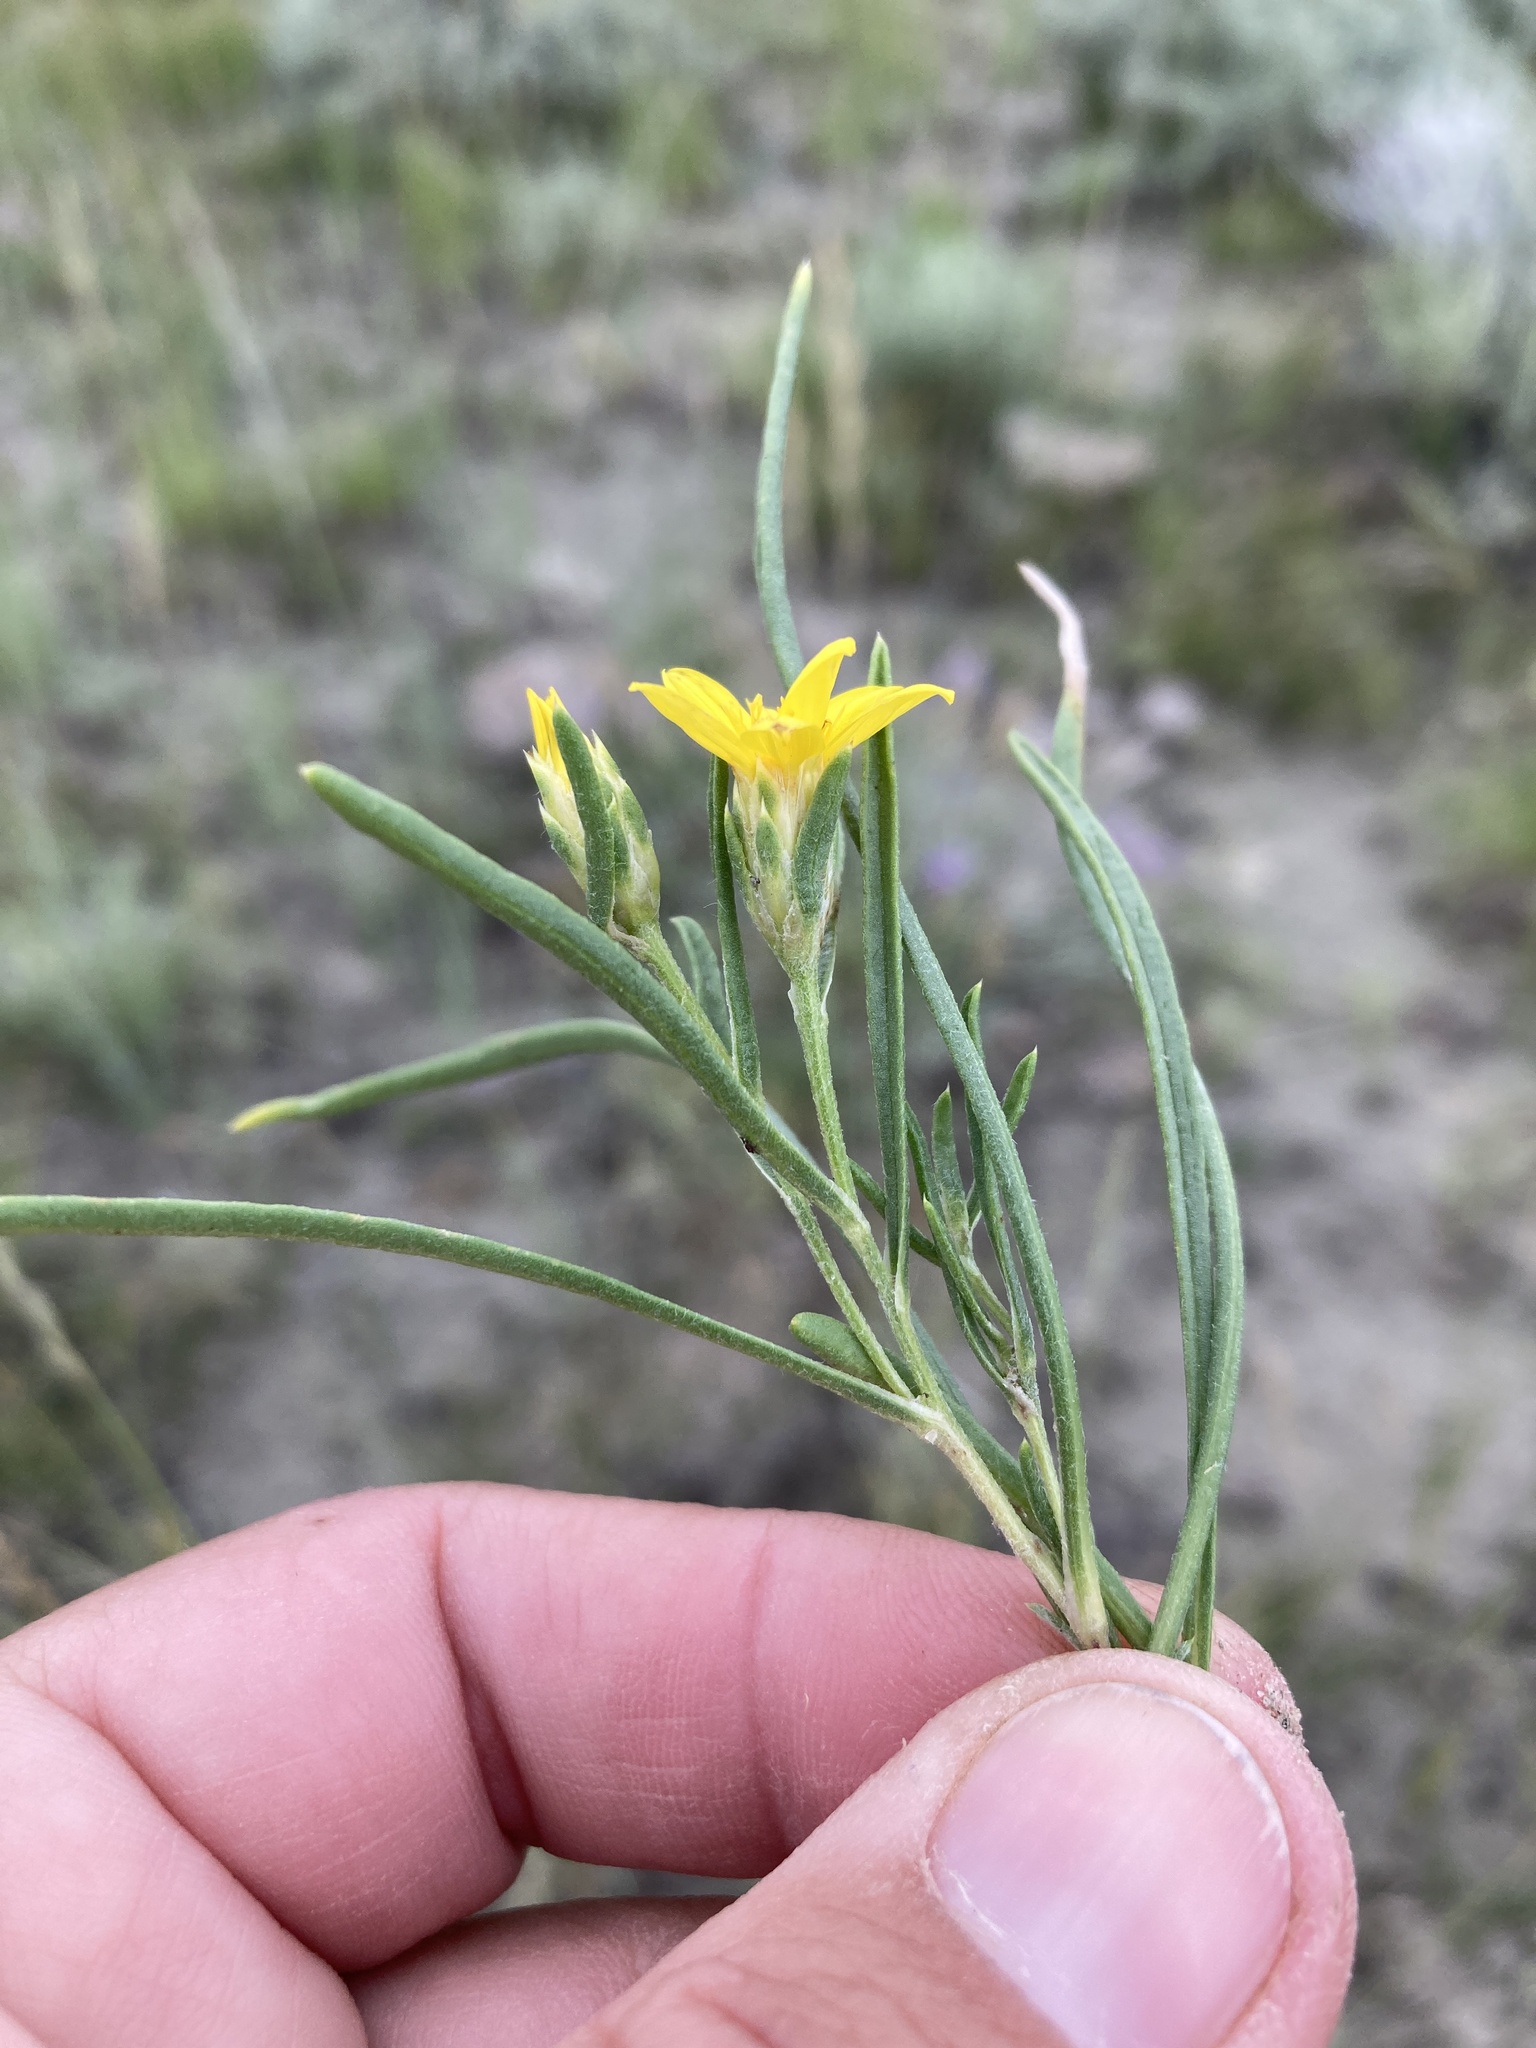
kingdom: Plantae
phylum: Tracheophyta
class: Magnoliopsida
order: Asterales
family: Asteraceae
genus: Oonopsis
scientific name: Oonopsis multicaulis
